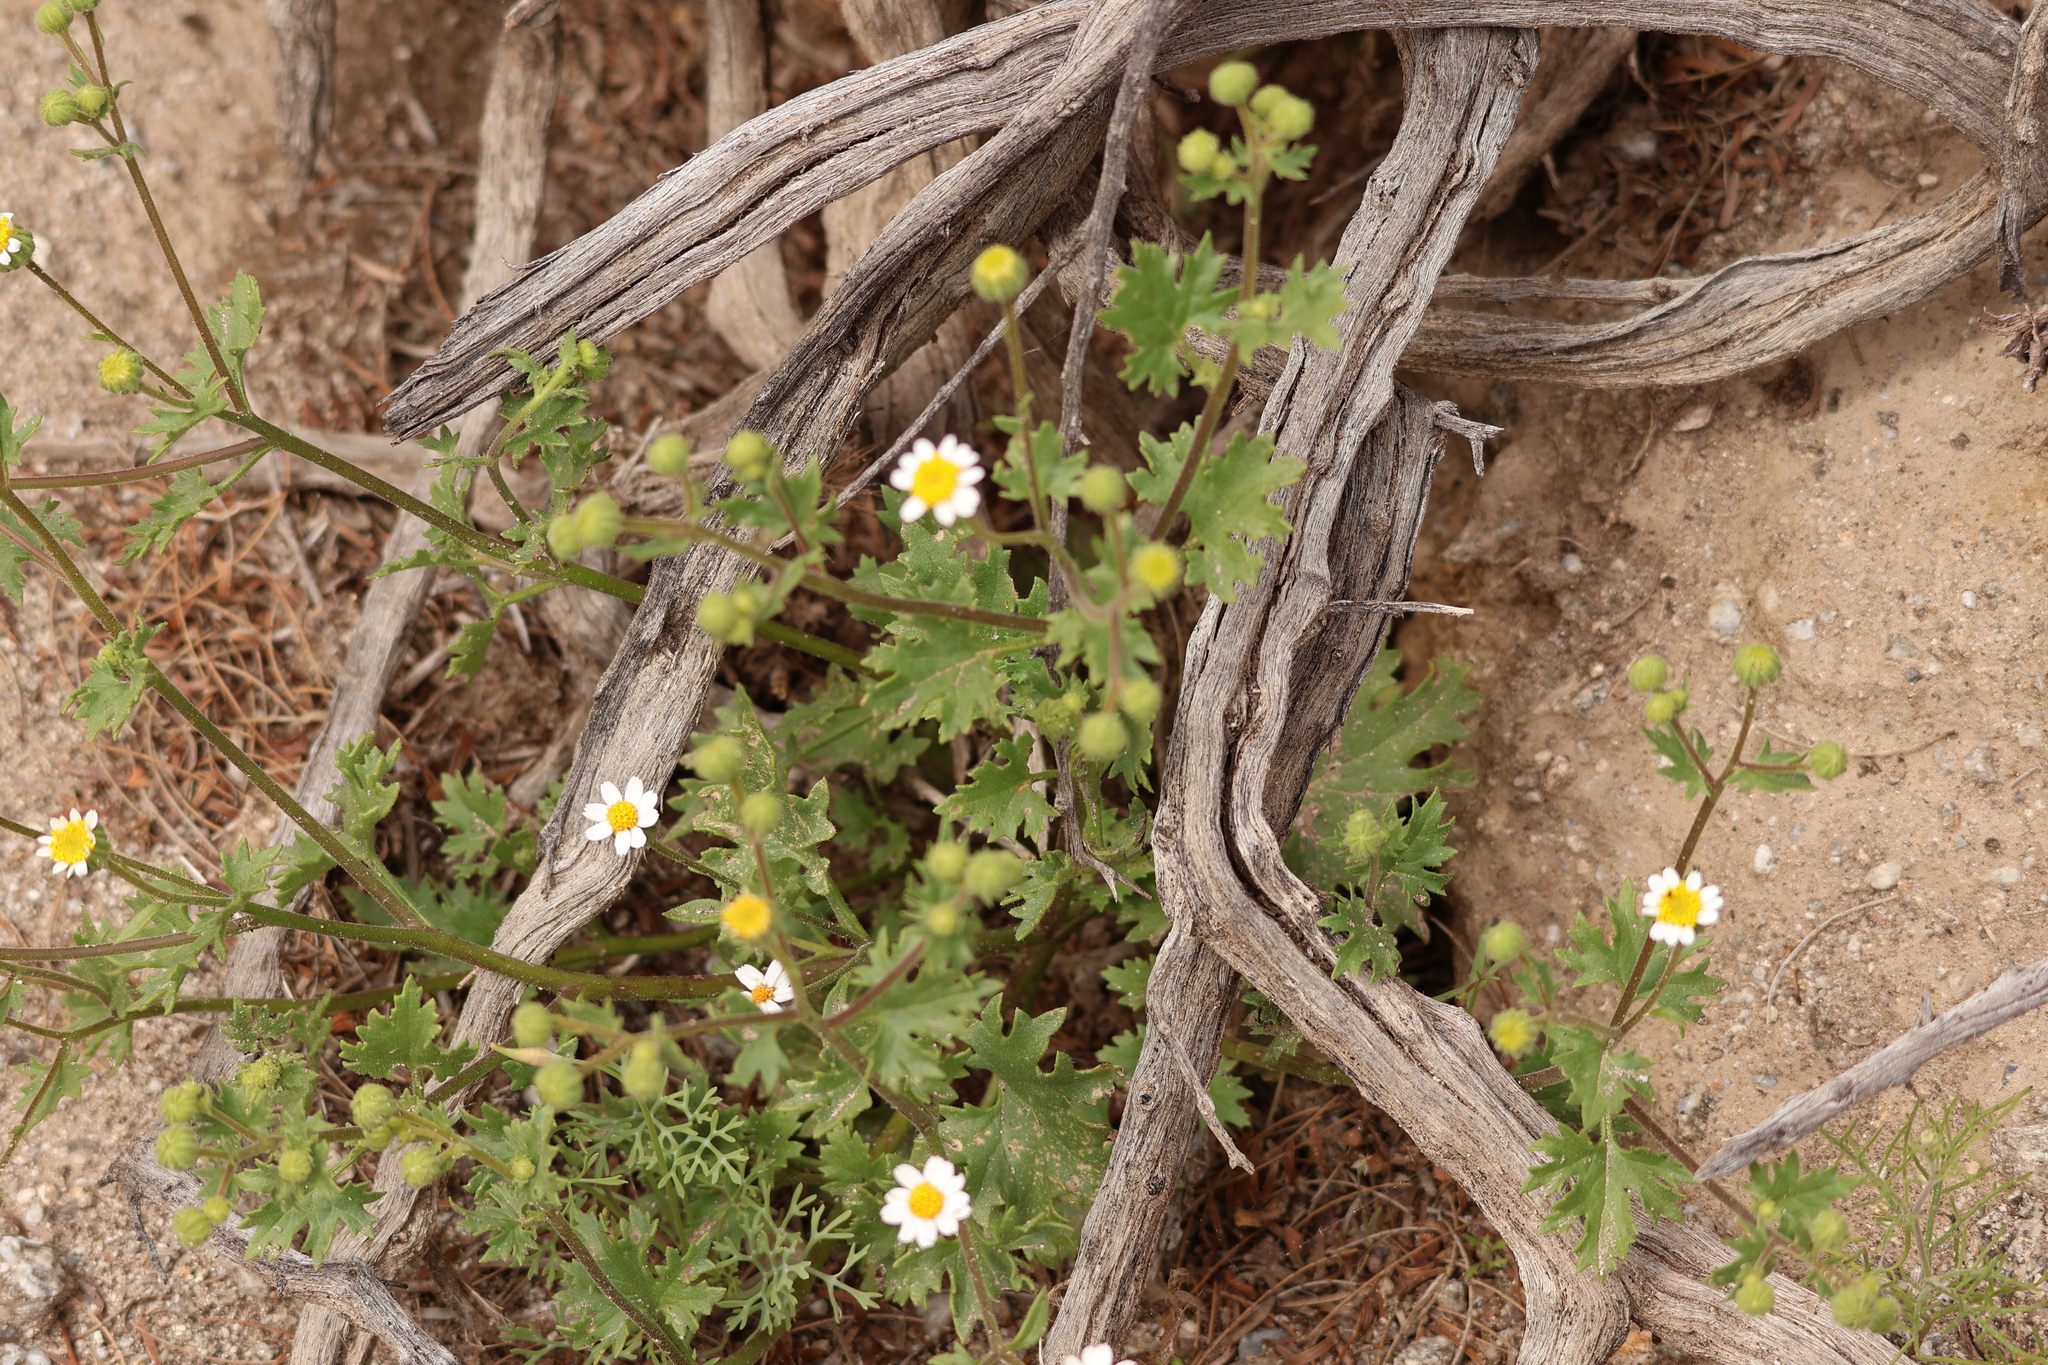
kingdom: Plantae
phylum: Tracheophyta
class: Magnoliopsida
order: Asterales
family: Asteraceae
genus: Laphamia
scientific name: Laphamia emoryi
